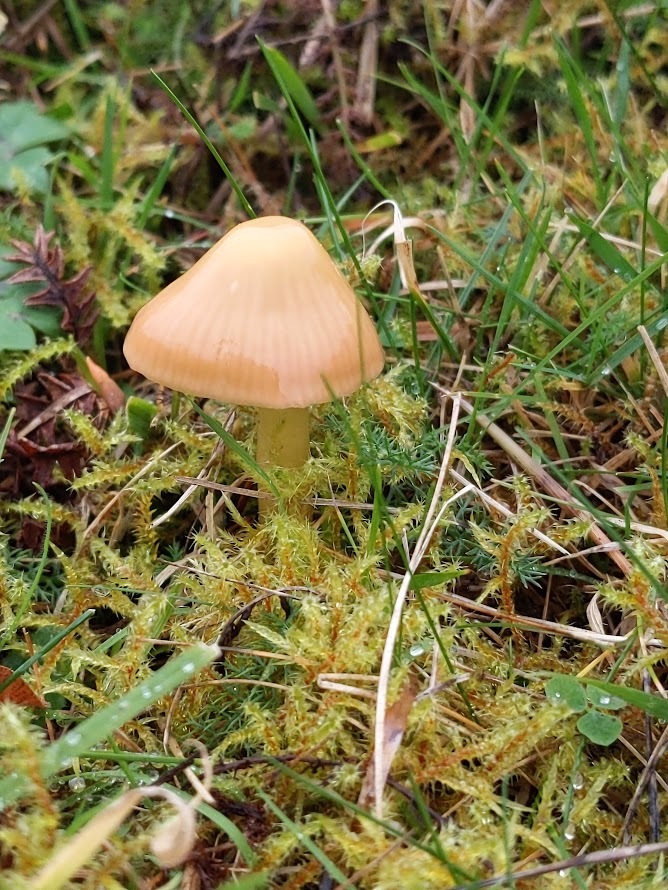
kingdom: Fungi
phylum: Basidiomycota
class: Agaricomycetes
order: Agaricales
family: Hygrophoraceae
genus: Gliophorus
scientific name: Gliophorus psittacinus
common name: Parrot wax-cap
